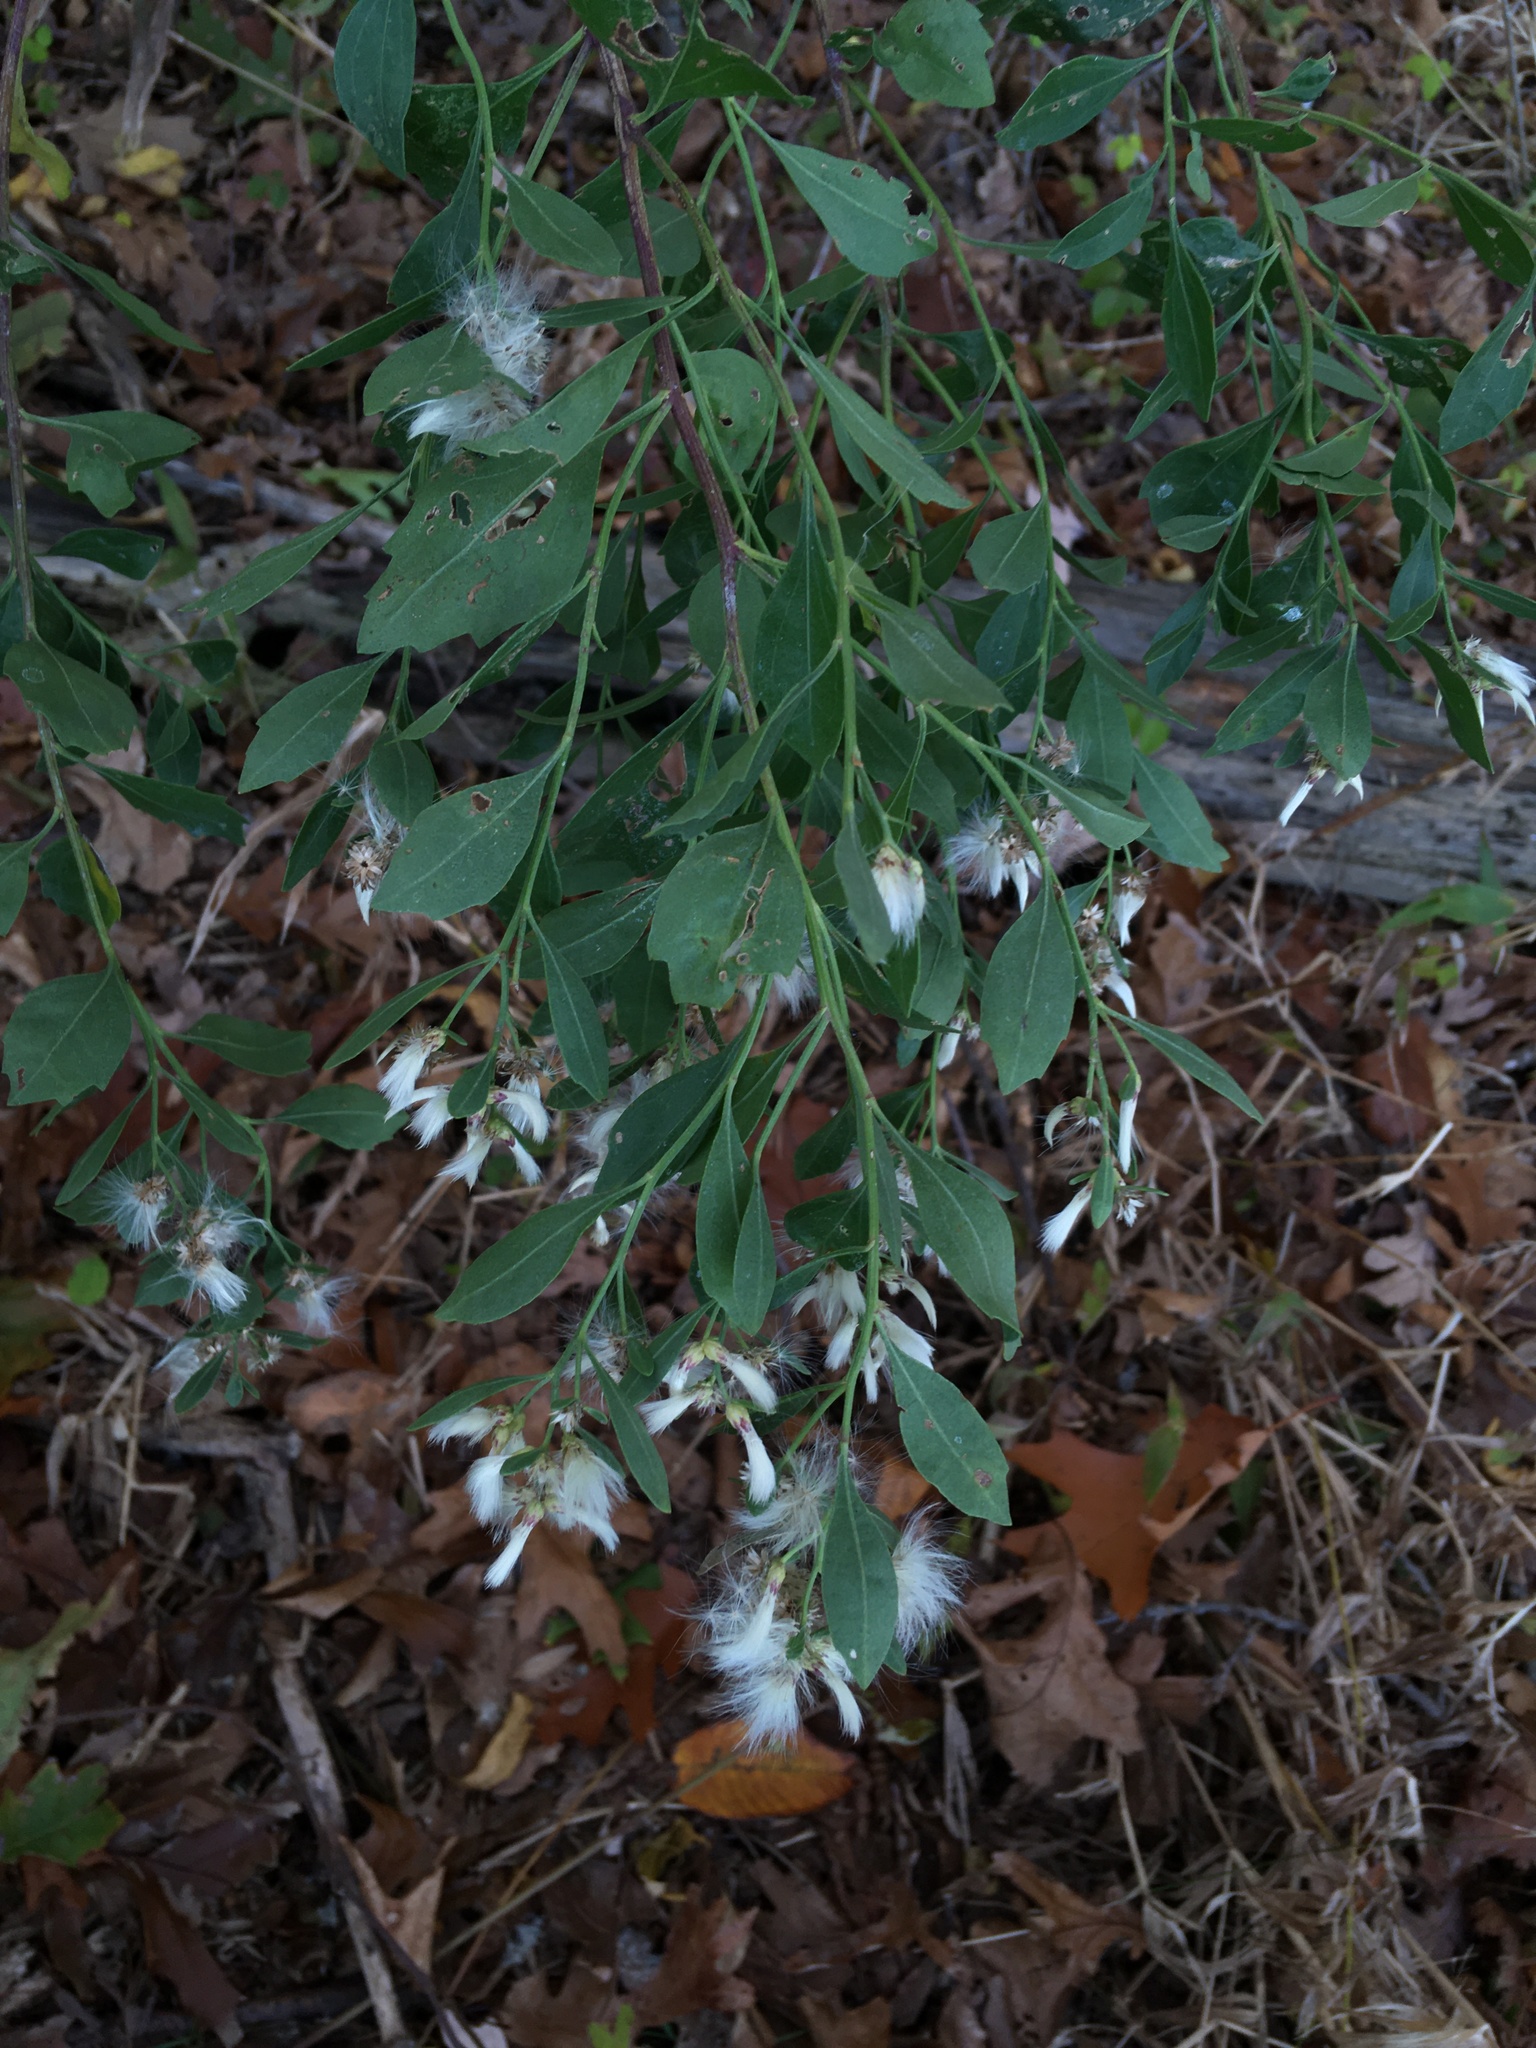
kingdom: Plantae
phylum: Tracheophyta
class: Magnoliopsida
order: Asterales
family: Asteraceae
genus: Baccharis
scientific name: Baccharis halimifolia
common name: Eastern baccharis
